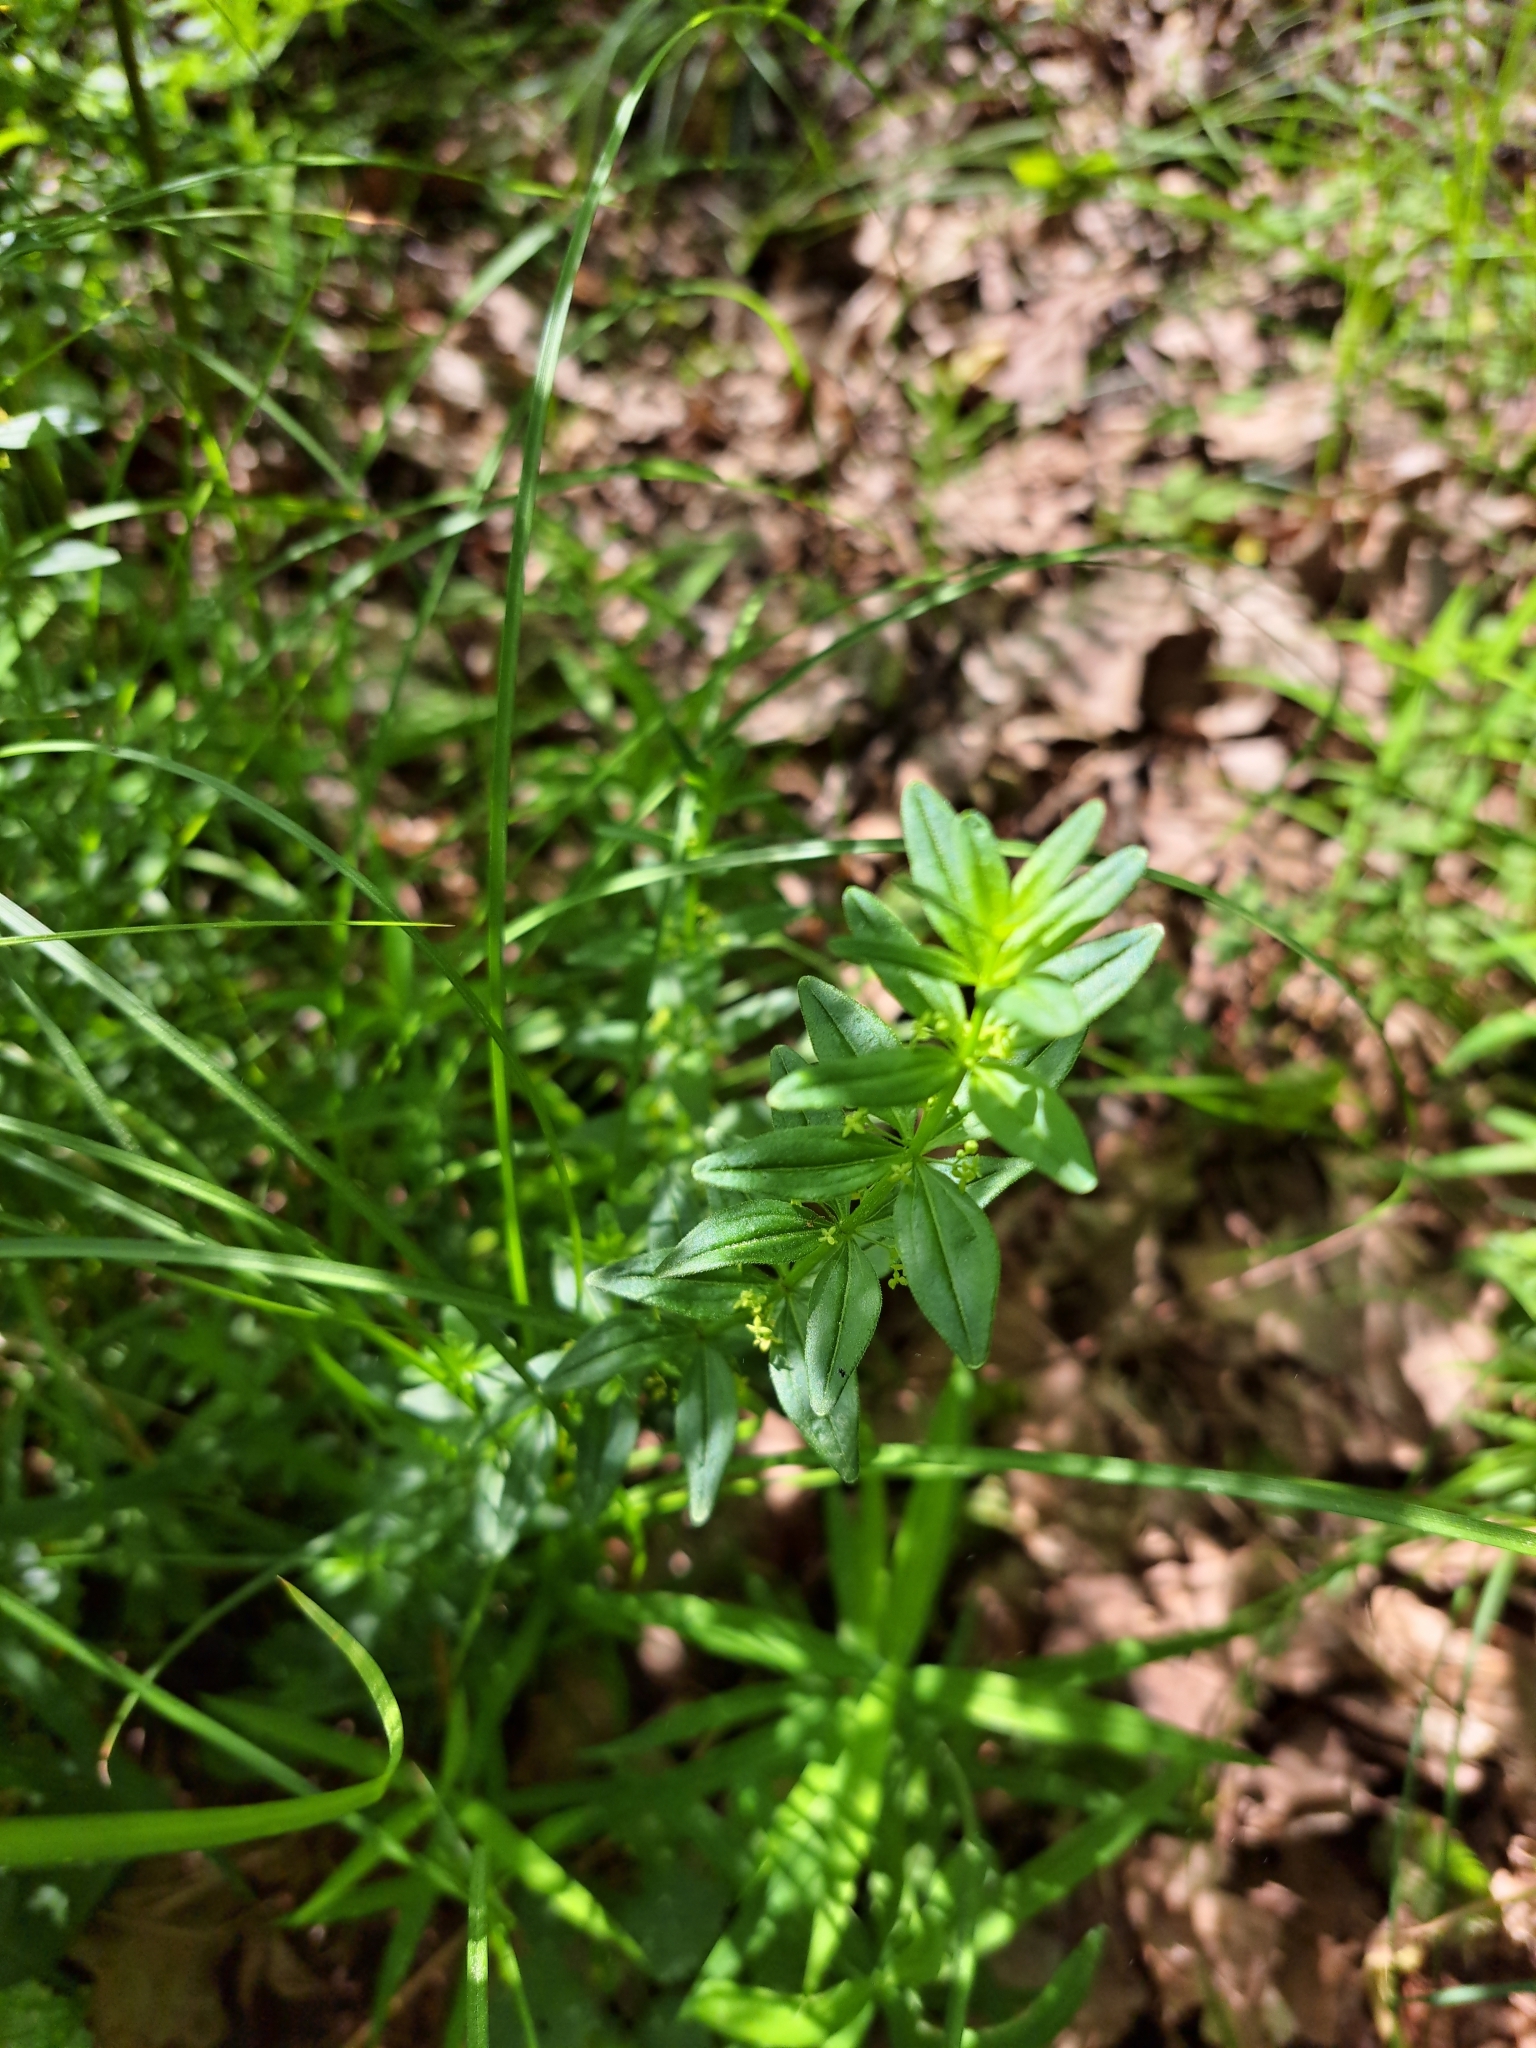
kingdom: Plantae
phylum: Tracheophyta
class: Magnoliopsida
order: Gentianales
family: Rubiaceae
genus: Cruciata
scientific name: Cruciata glabra
